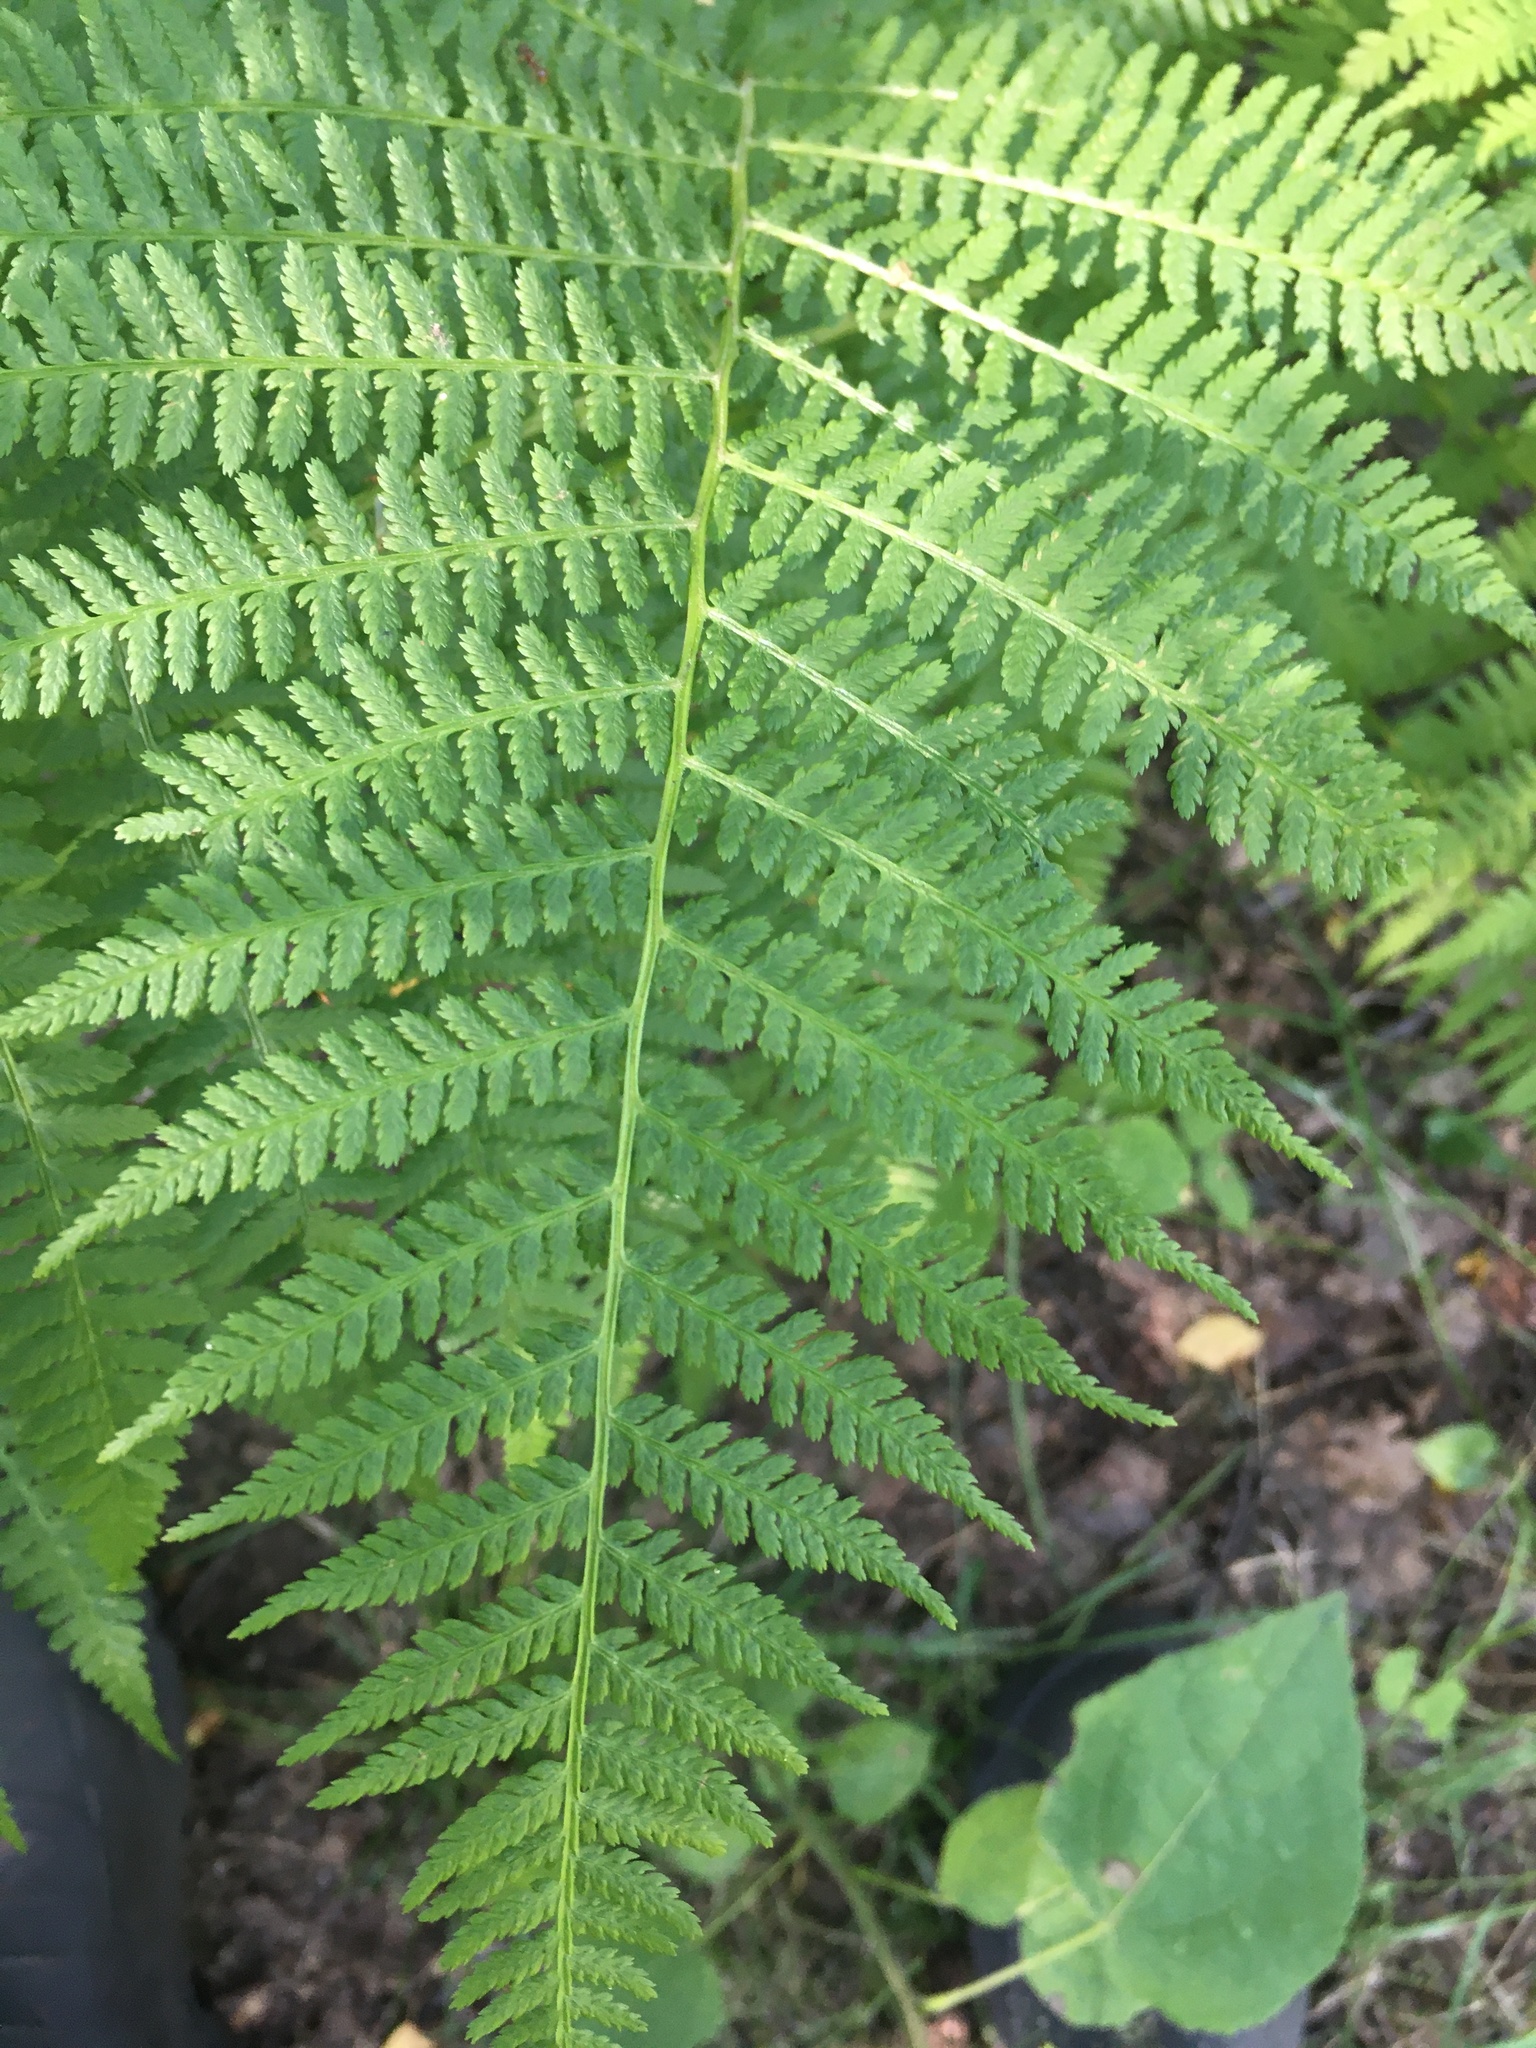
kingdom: Plantae
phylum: Tracheophyta
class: Polypodiopsida
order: Polypodiales
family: Athyriaceae
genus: Athyrium
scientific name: Athyrium filix-femina
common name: Lady fern
